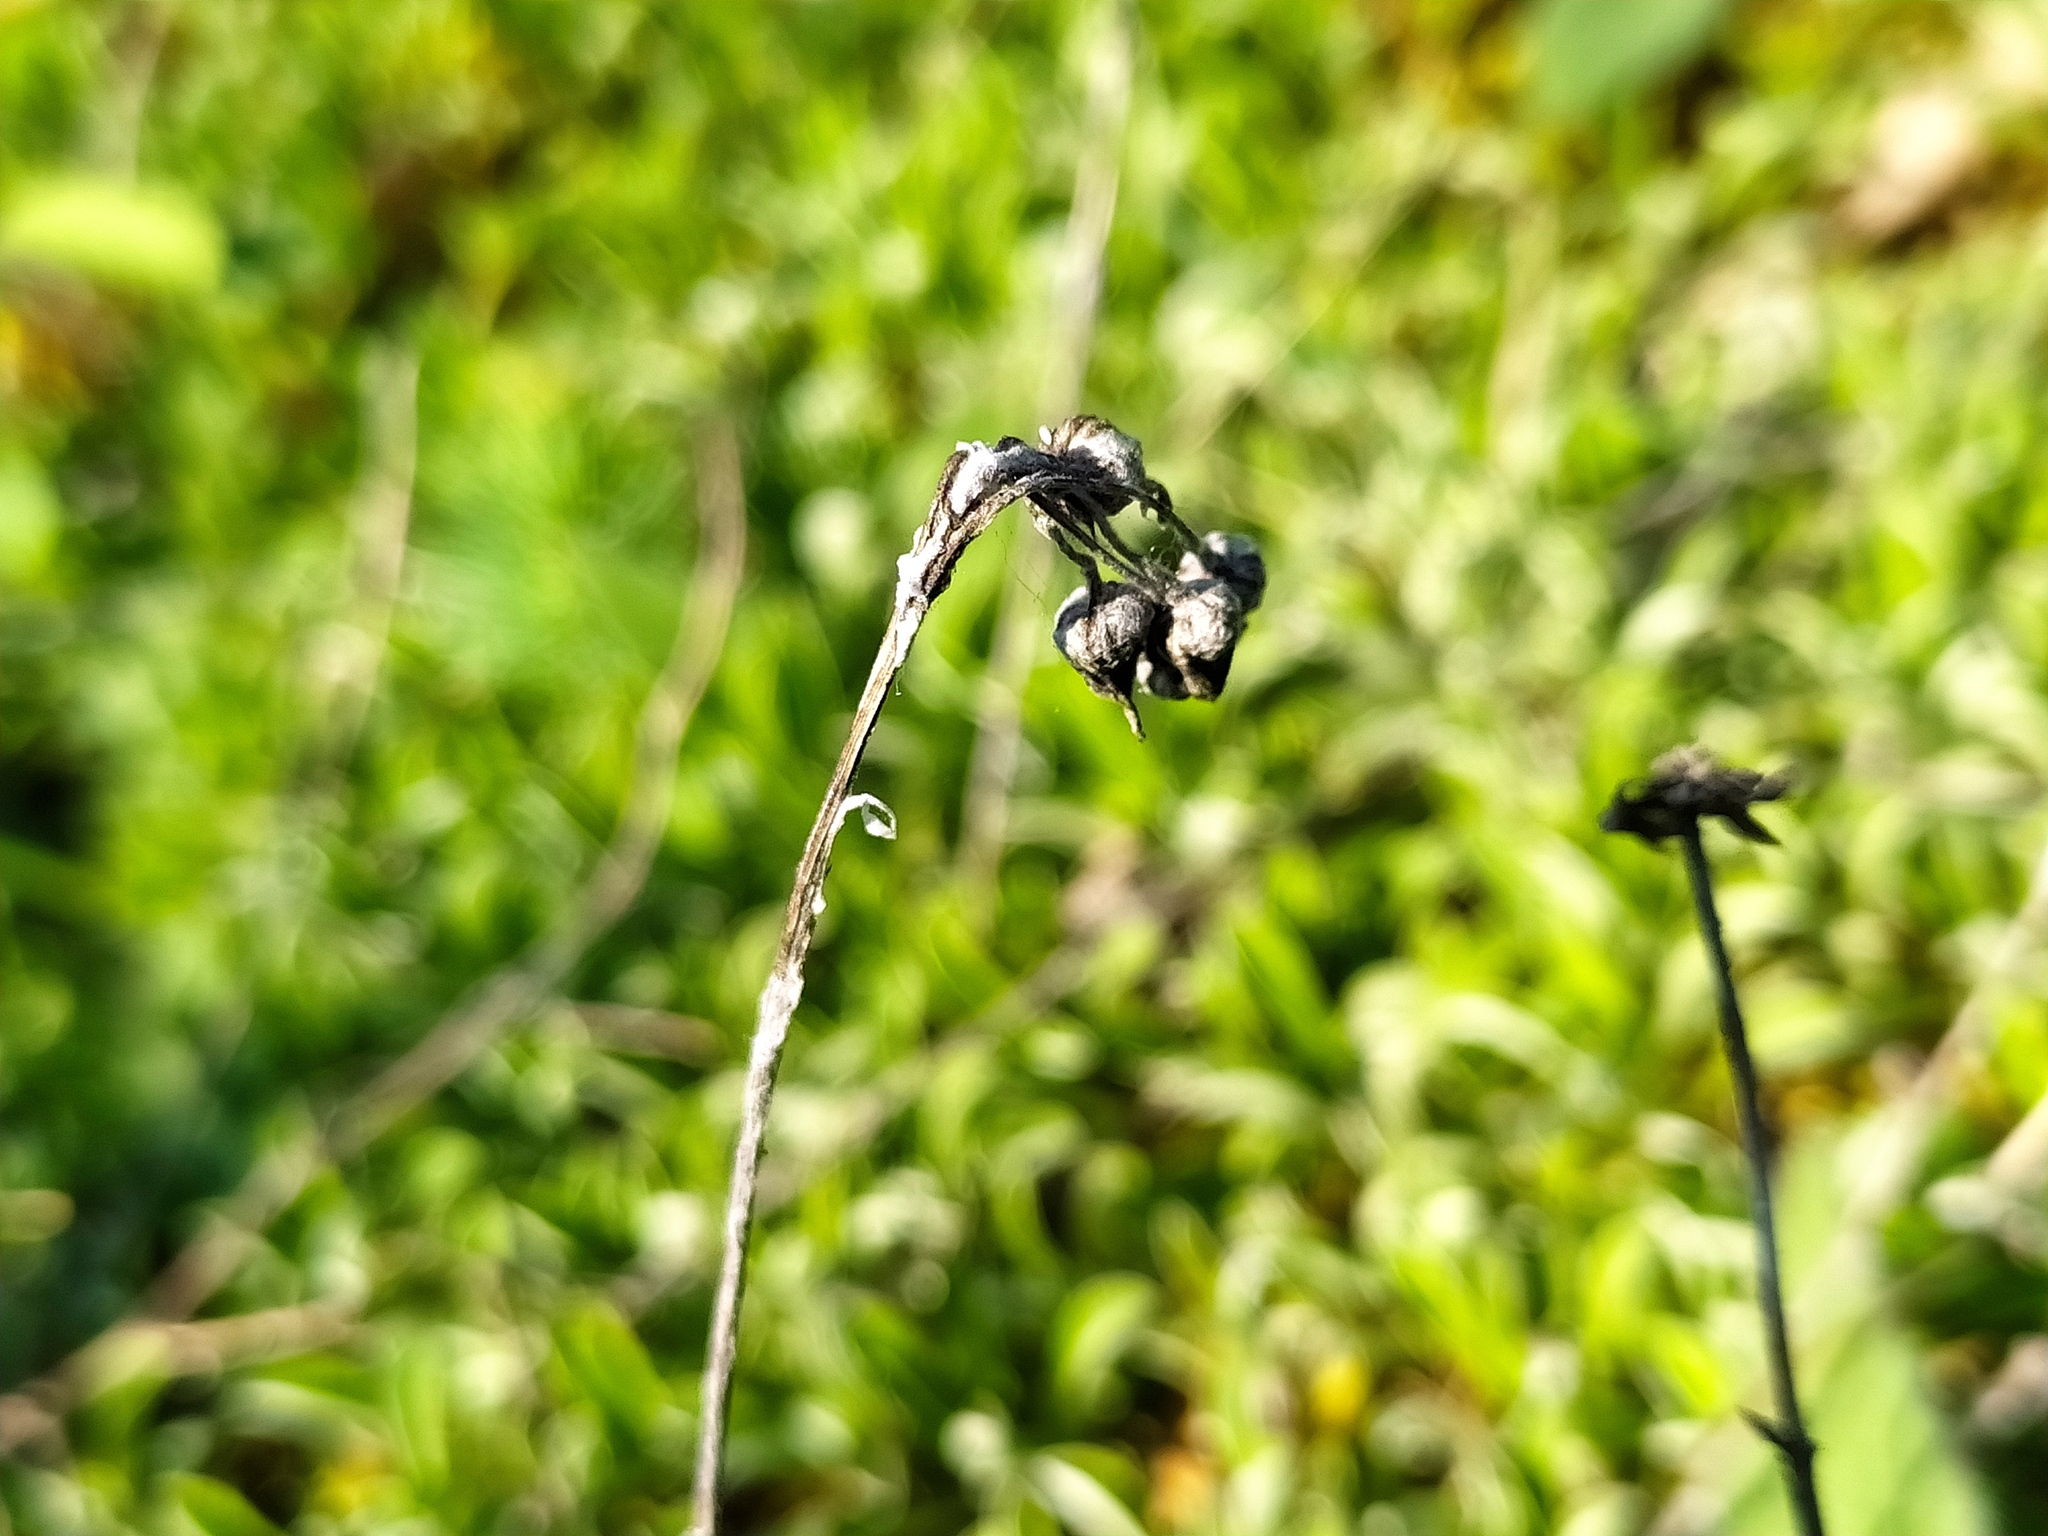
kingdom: Plantae
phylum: Tracheophyta
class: Magnoliopsida
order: Asterales
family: Asteraceae
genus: Antennaria
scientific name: Antennaria dioica
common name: Mountain everlasting
